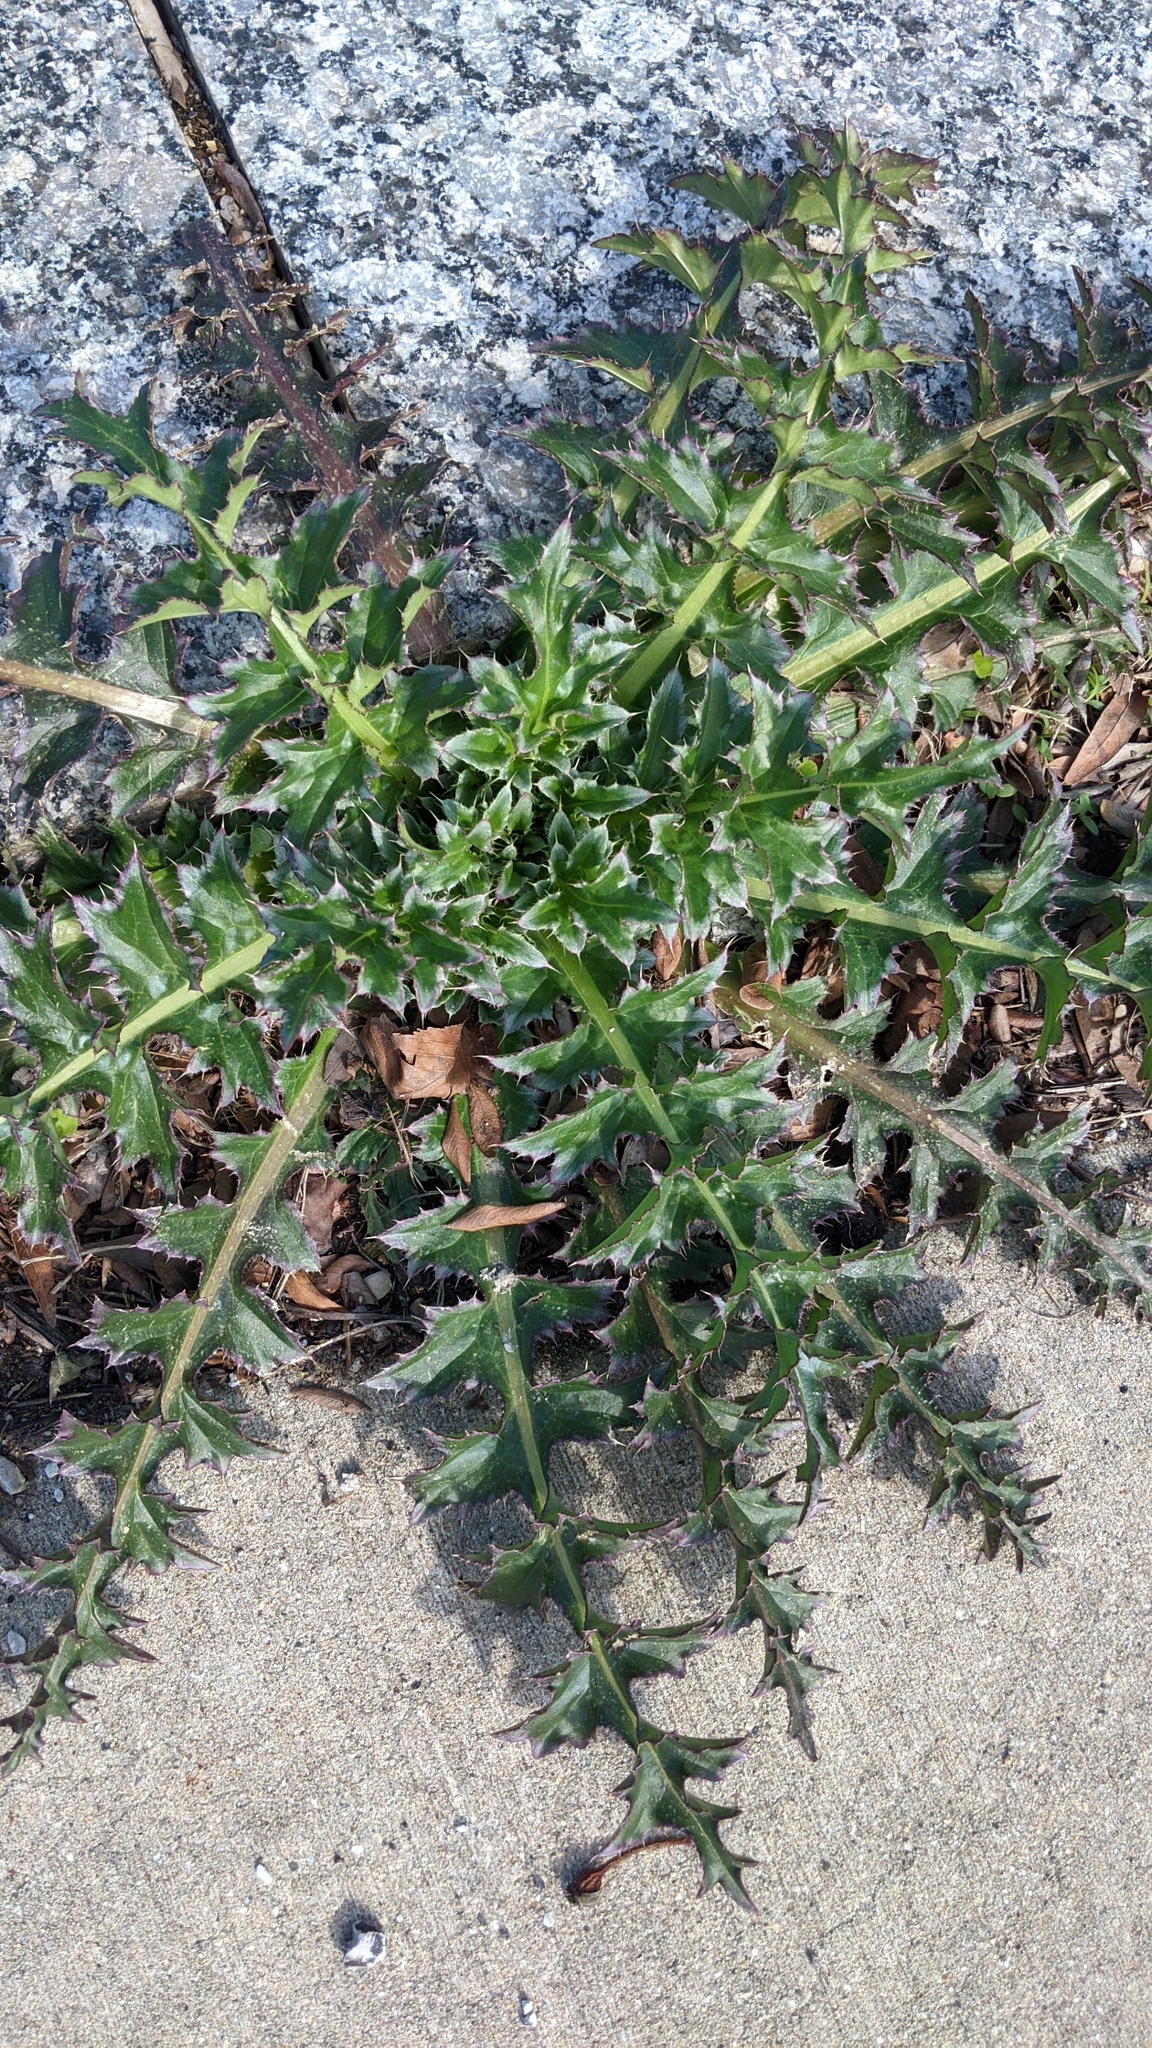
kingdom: Plantae
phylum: Tracheophyta
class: Magnoliopsida
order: Asterales
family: Asteraceae
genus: Carduus
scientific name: Carduus nutans
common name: Musk thistle
